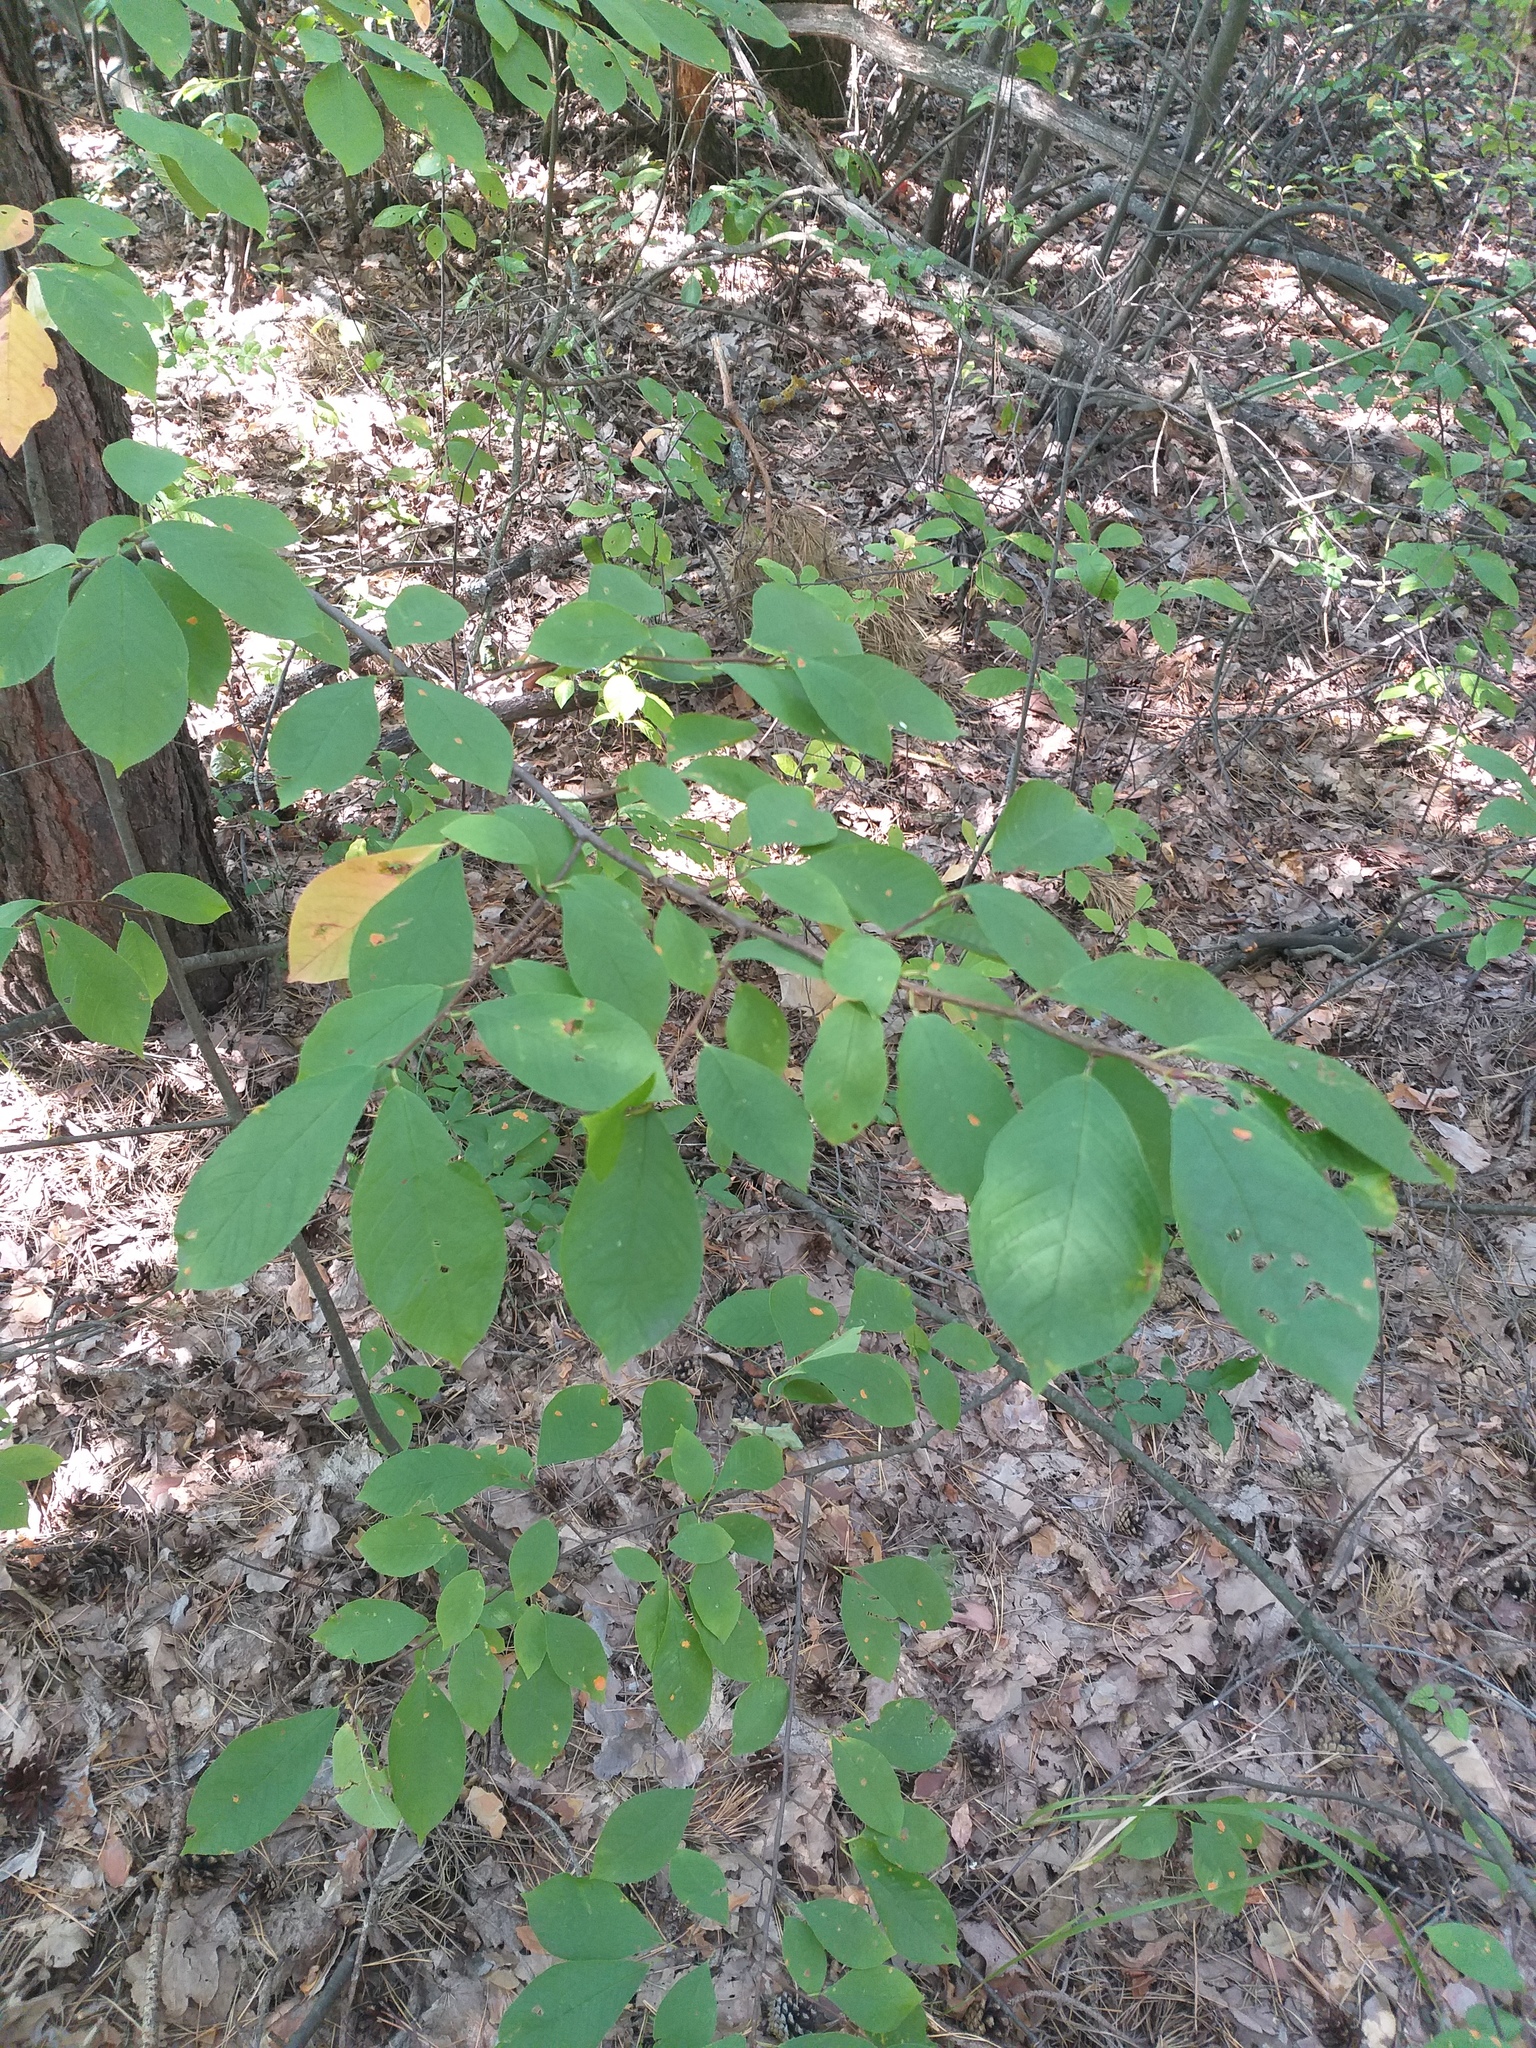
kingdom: Plantae
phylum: Tracheophyta
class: Magnoliopsida
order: Rosales
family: Rosaceae
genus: Prunus
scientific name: Prunus padus
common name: Bird cherry
